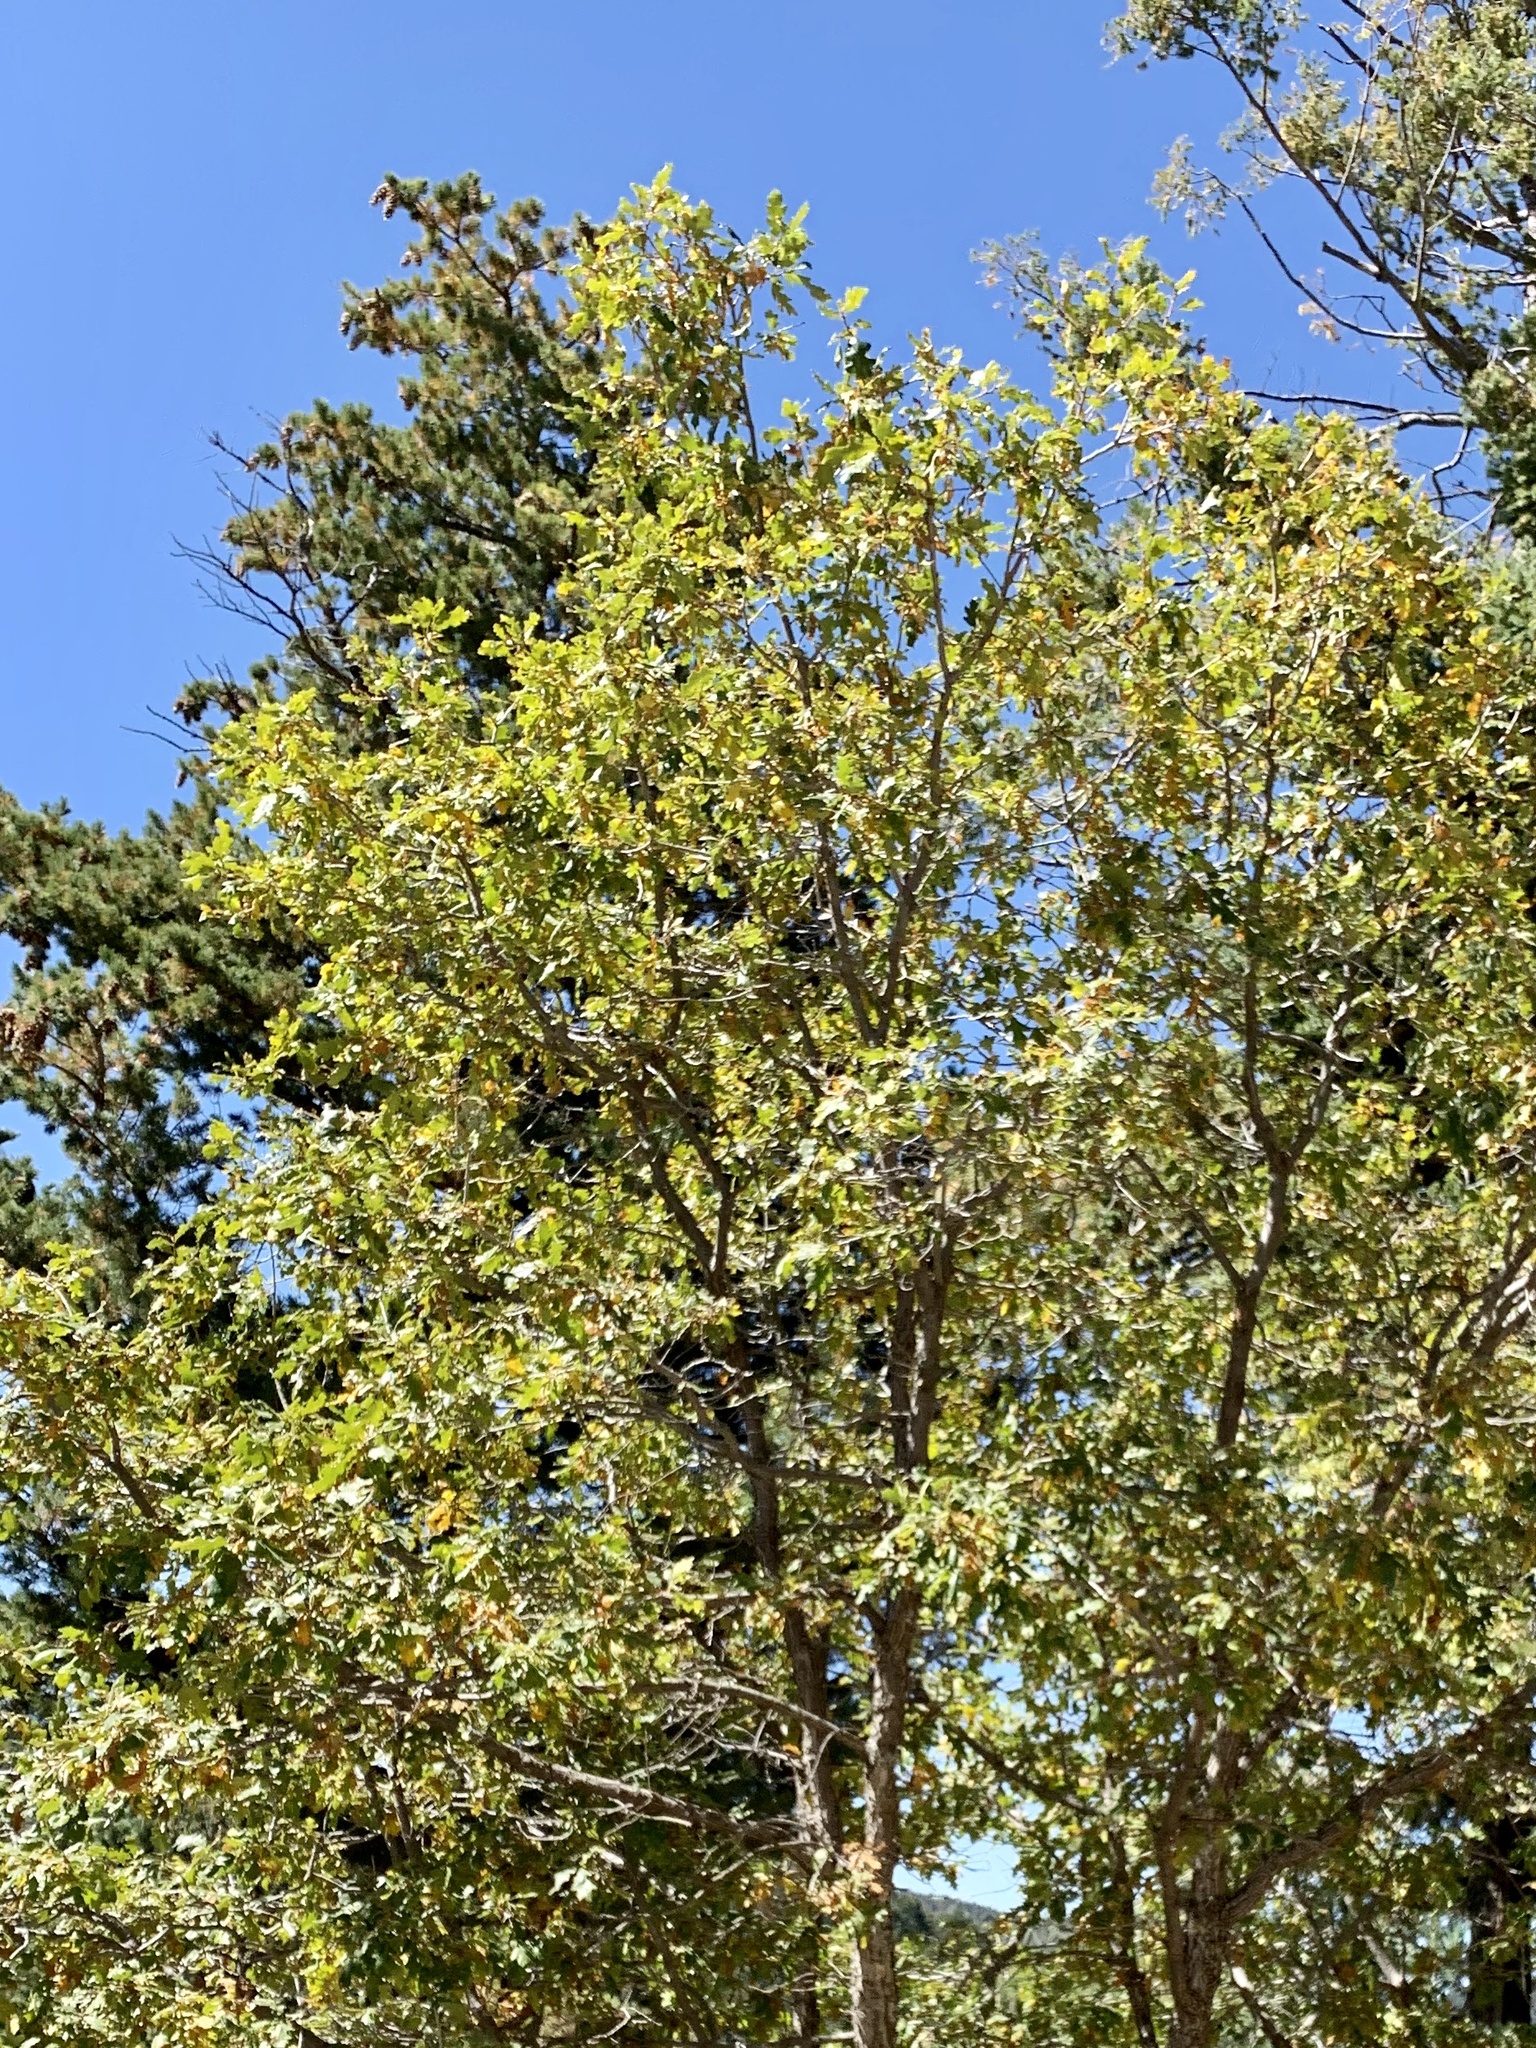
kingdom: Plantae
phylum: Tracheophyta
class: Magnoliopsida
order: Fagales
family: Fagaceae
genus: Quercus
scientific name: Quercus gambelii
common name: Gambel oak
